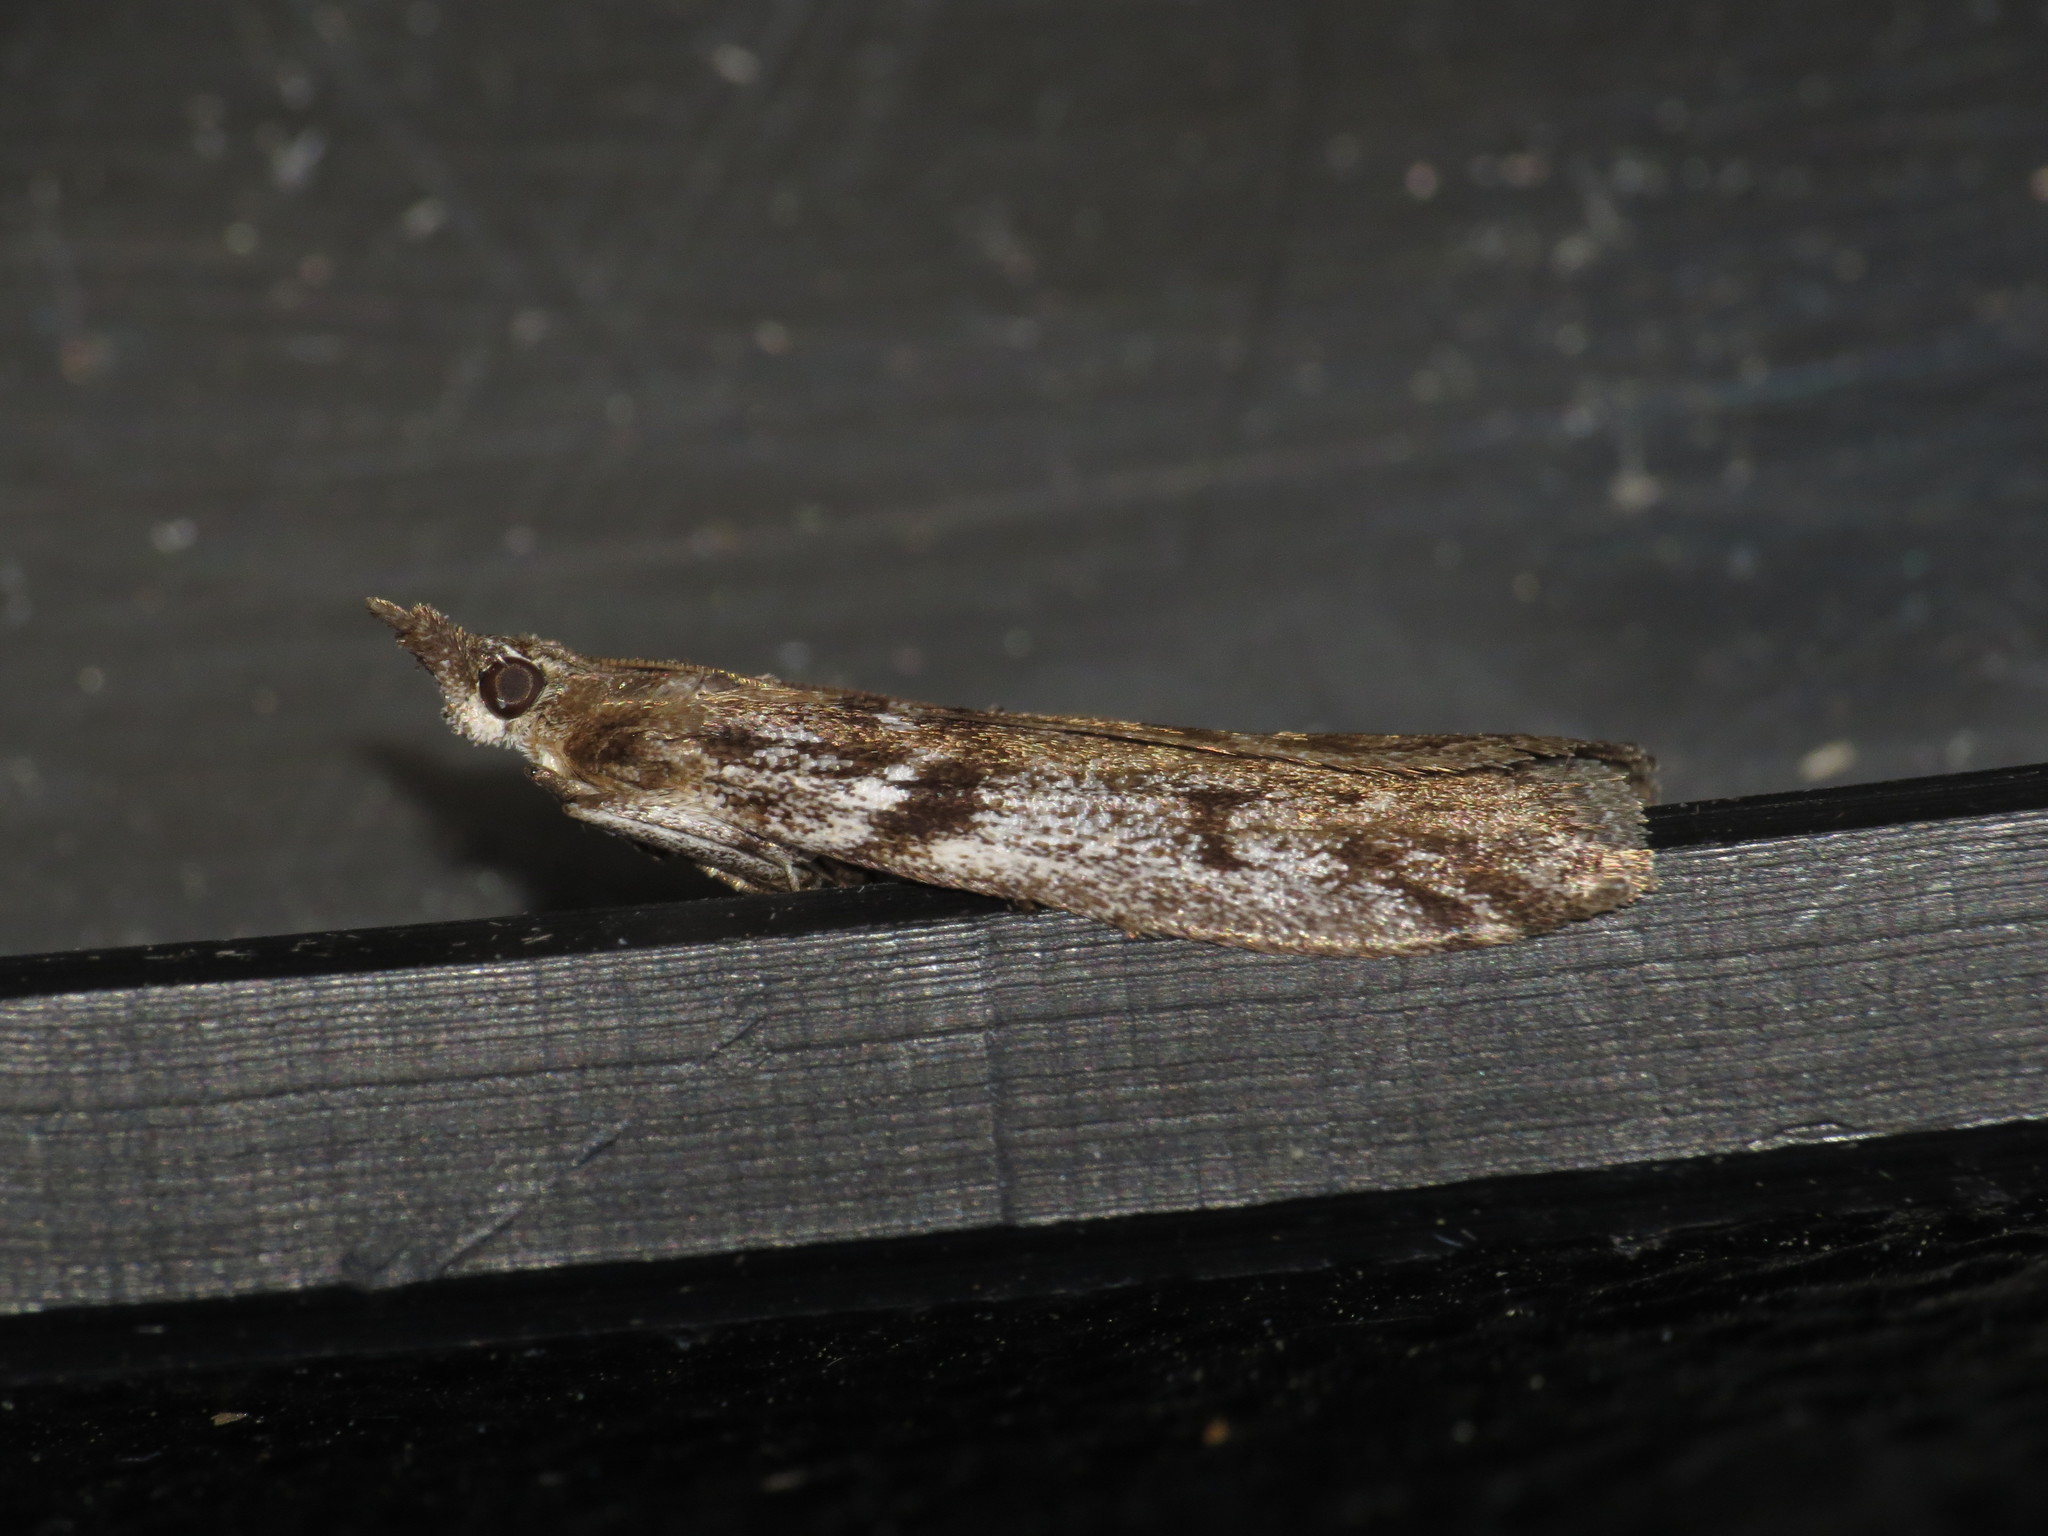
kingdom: Animalia
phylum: Arthropoda
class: Insecta
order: Lepidoptera
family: Pyralidae
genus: Zophodia
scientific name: Zophodia convolutella
